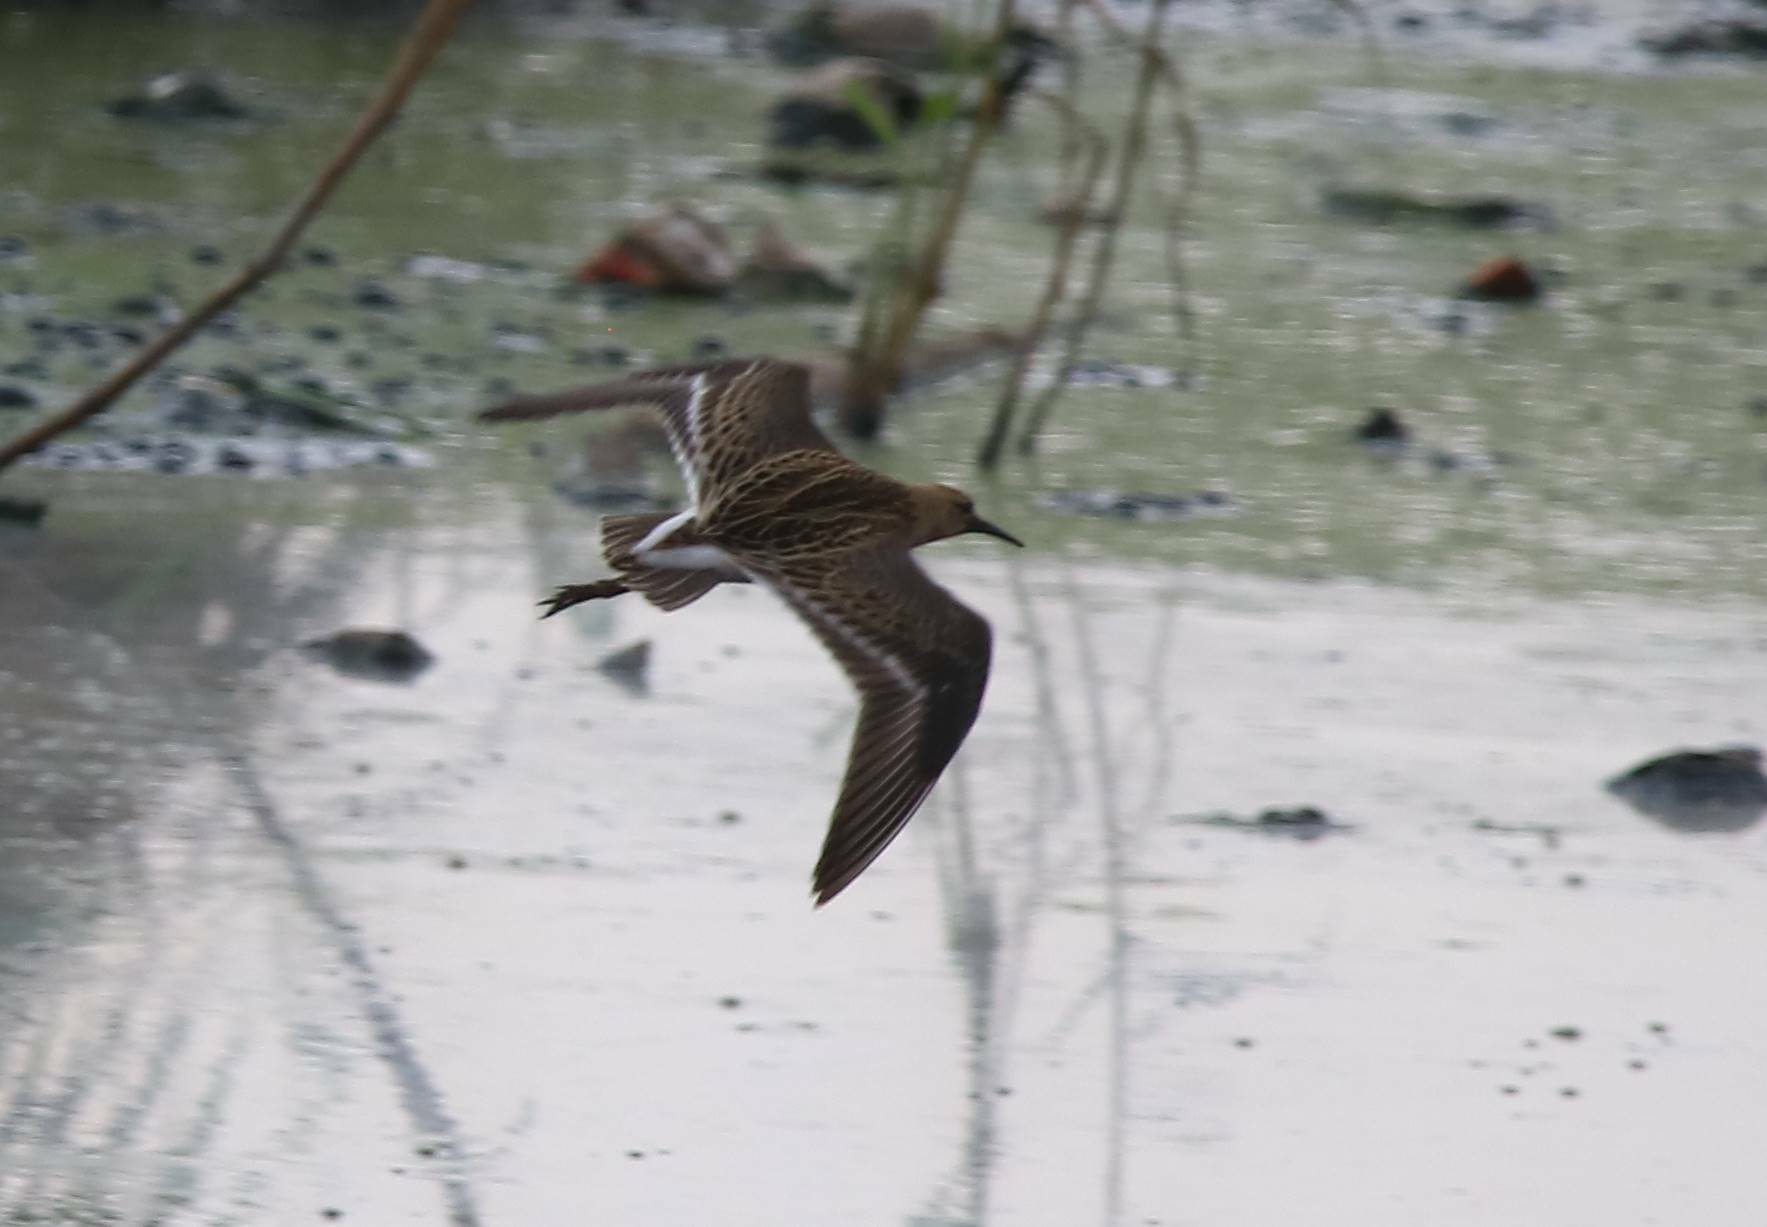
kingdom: Animalia
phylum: Chordata
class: Aves
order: Charadriiformes
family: Scolopacidae
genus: Calidris
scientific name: Calidris pugnax
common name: Ruff
